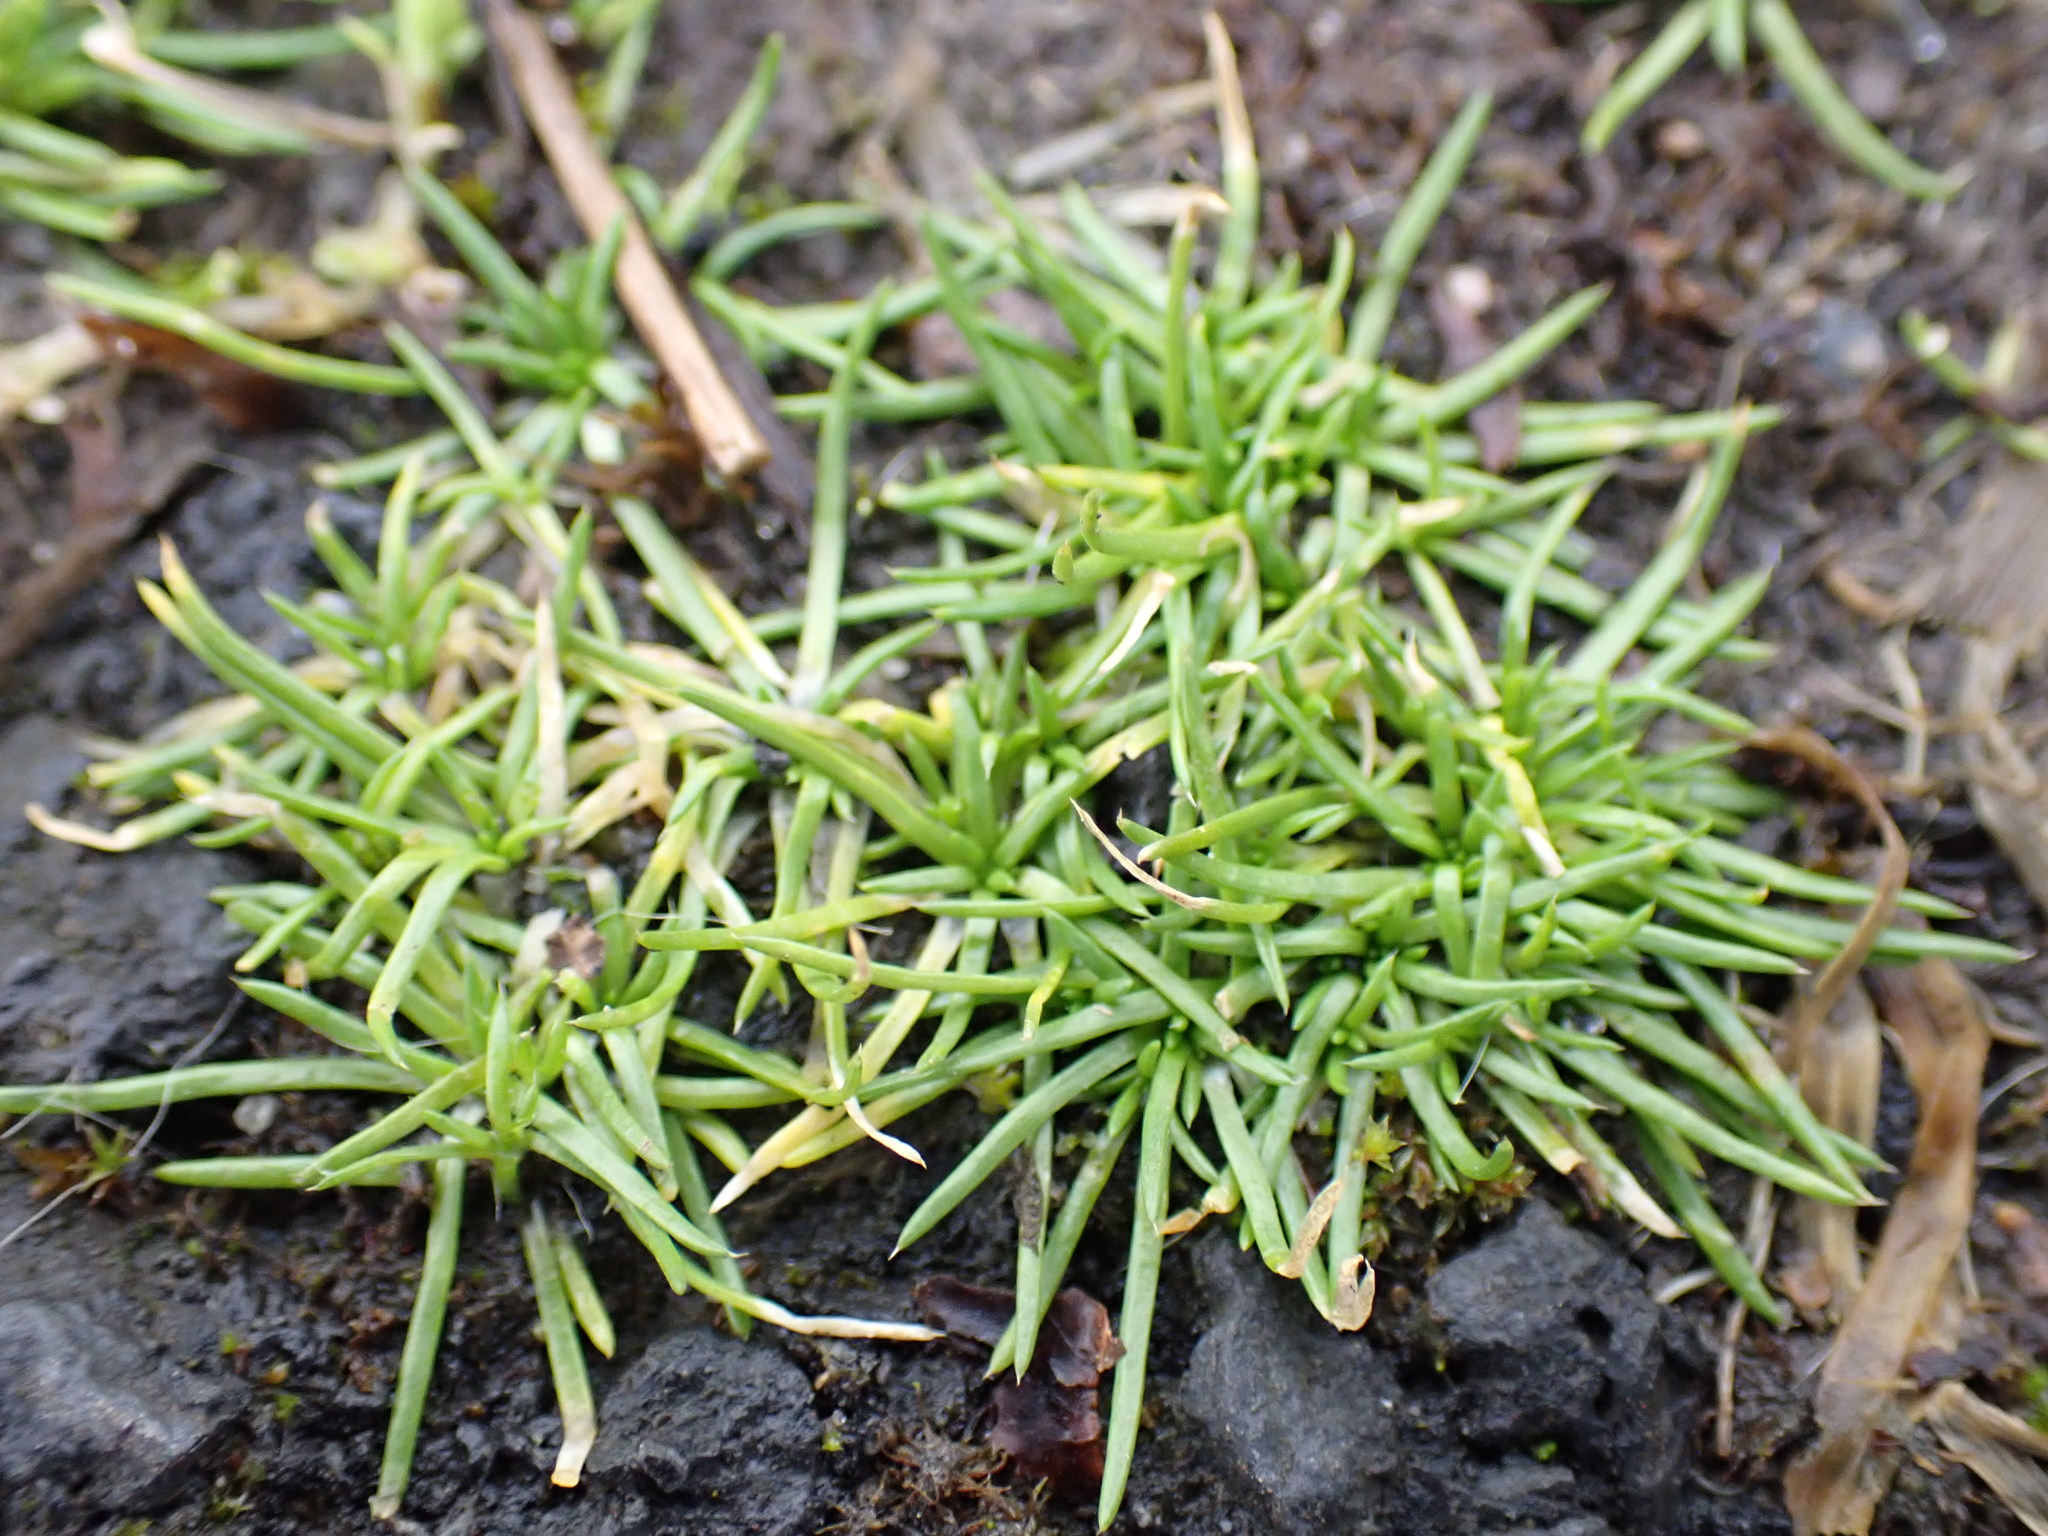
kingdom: Plantae
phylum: Tracheophyta
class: Magnoliopsida
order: Caryophyllales
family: Caryophyllaceae
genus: Sagina
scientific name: Sagina procumbens
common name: Procumbent pearlwort
